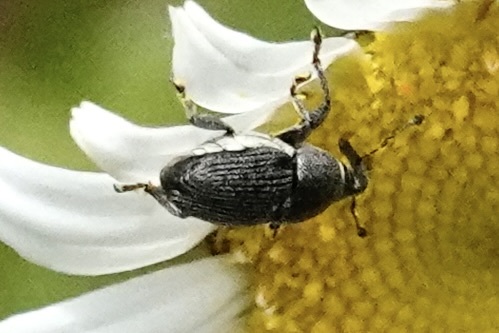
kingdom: Animalia
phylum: Arthropoda
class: Insecta
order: Coleoptera
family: Curculionidae
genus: Odontocorynus
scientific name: Odontocorynus salebrosus
